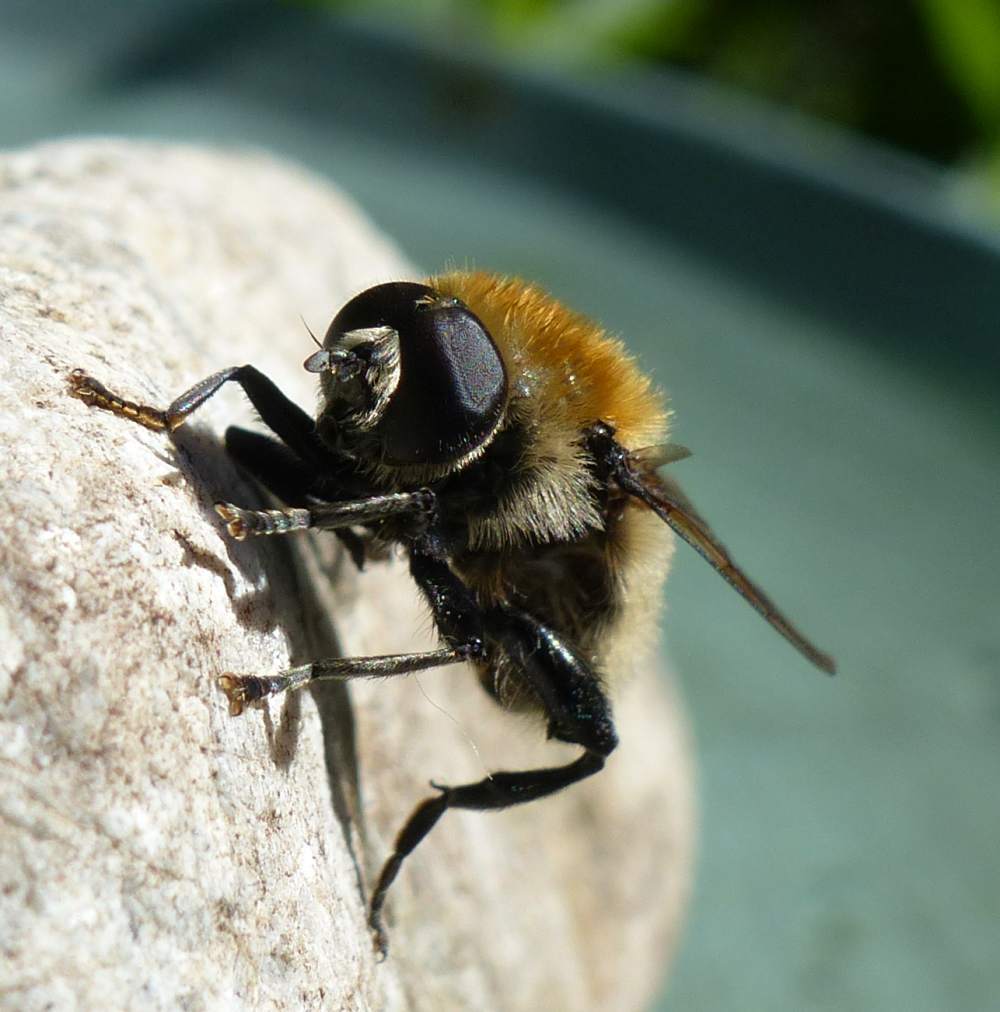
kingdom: Animalia
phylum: Arthropoda
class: Insecta
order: Diptera
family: Syrphidae
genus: Merodon
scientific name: Merodon equestris
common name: Greater bulb-fly
